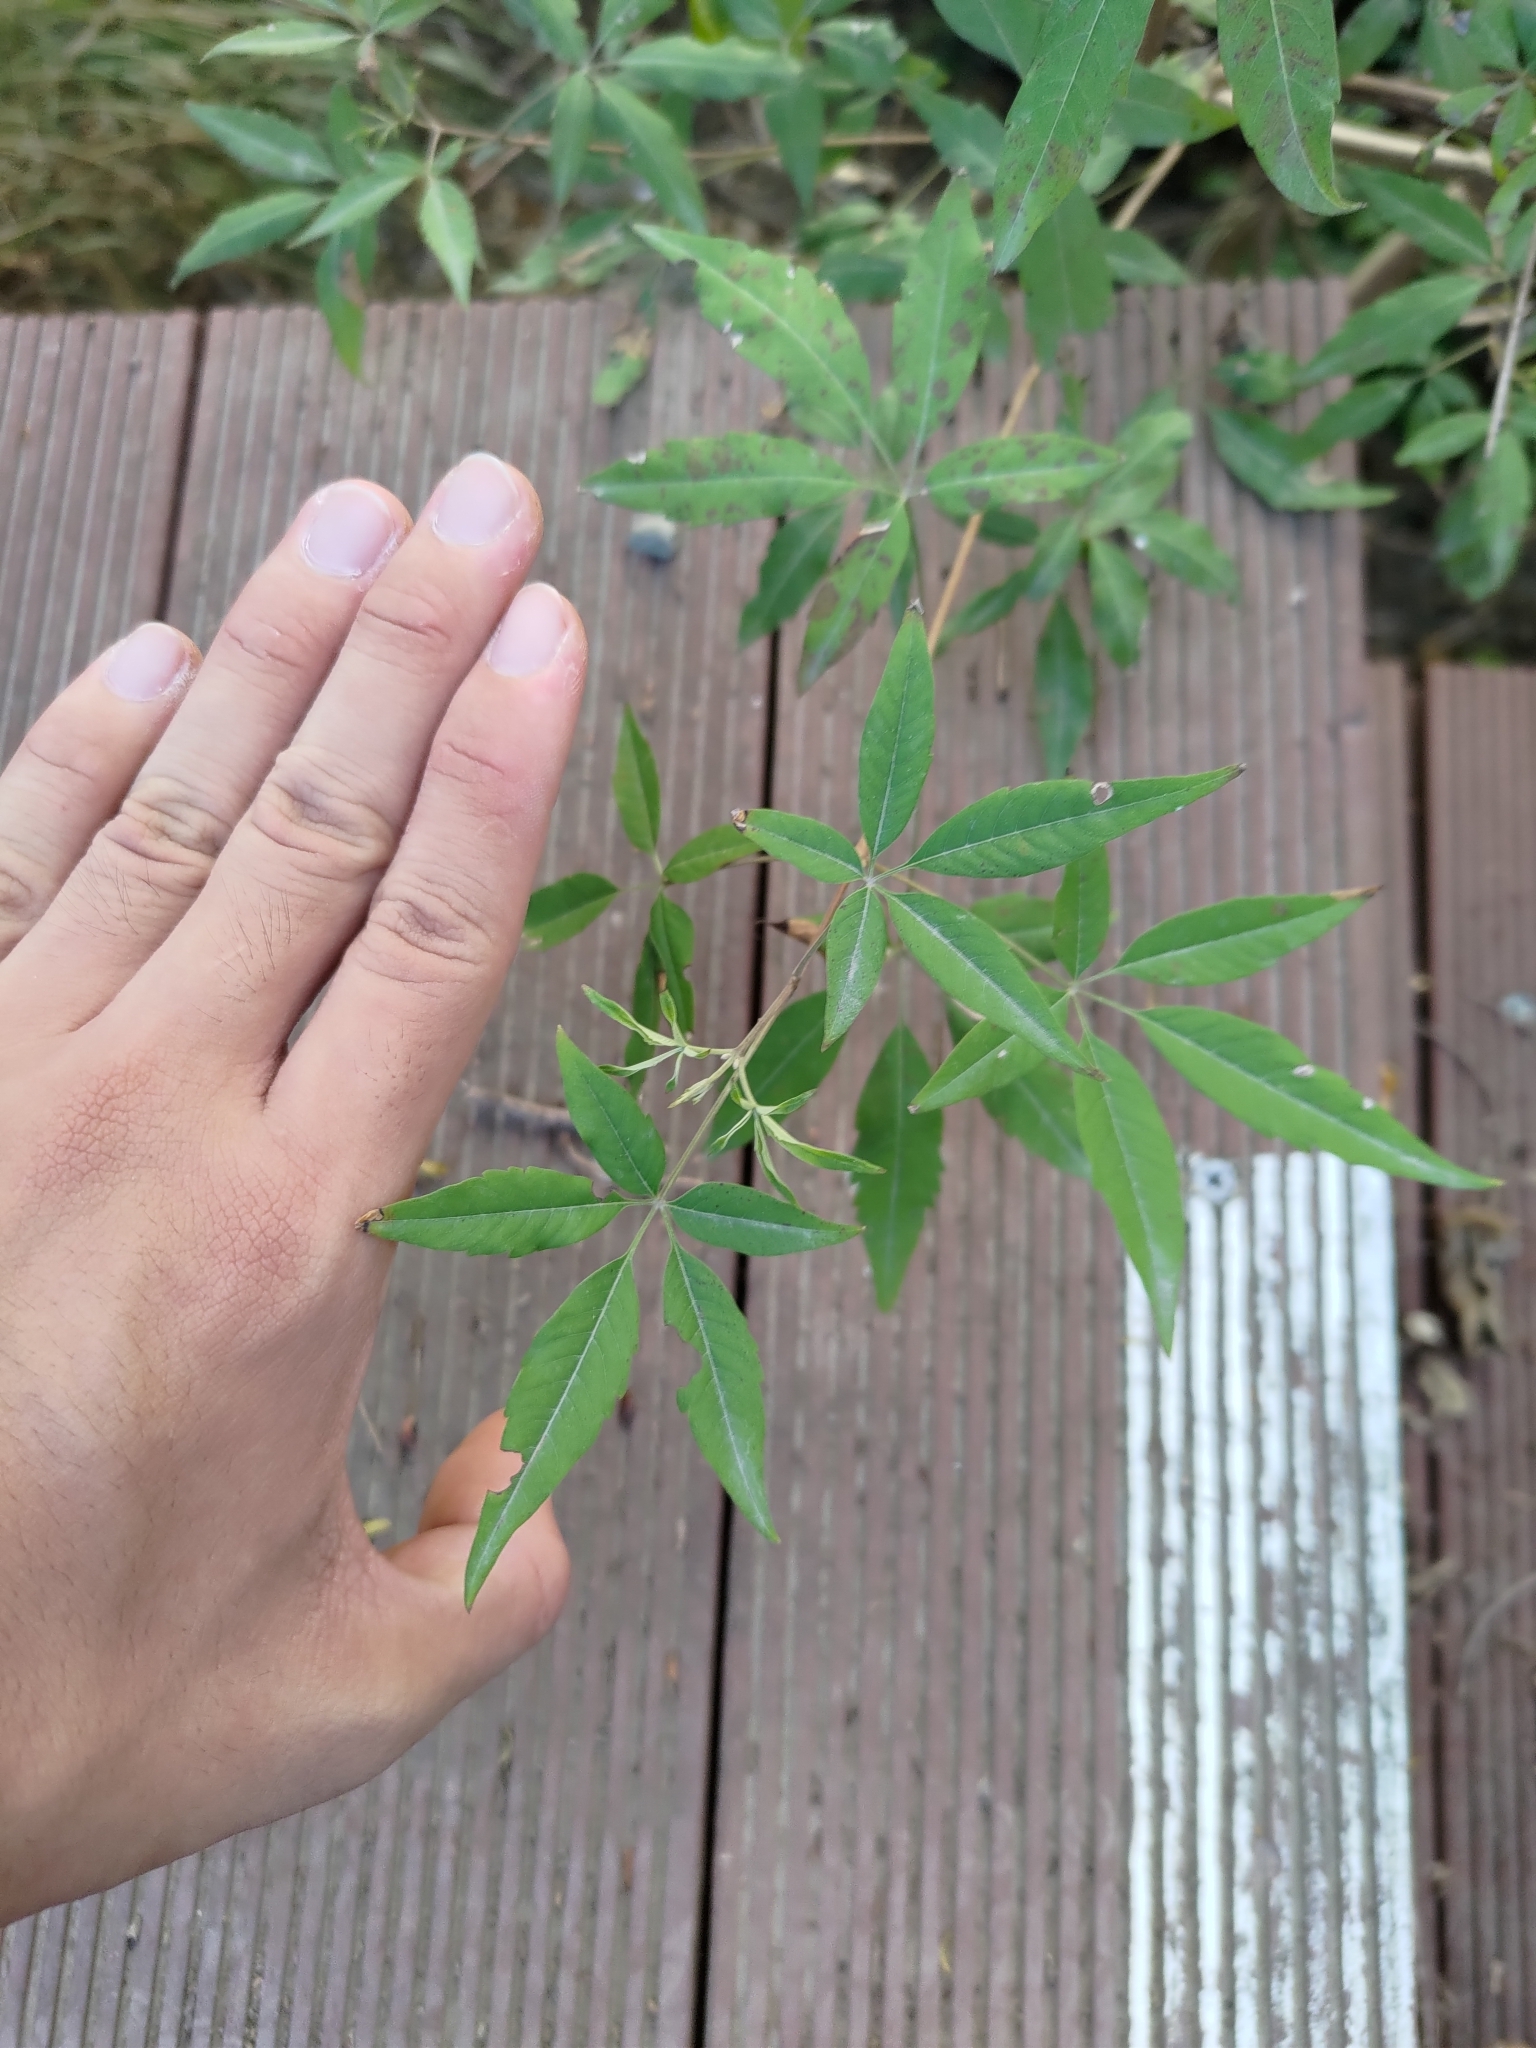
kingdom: Plantae
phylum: Tracheophyta
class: Magnoliopsida
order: Lamiales
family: Lamiaceae
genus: Vitex
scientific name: Vitex negundo
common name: Chinese chastetree
